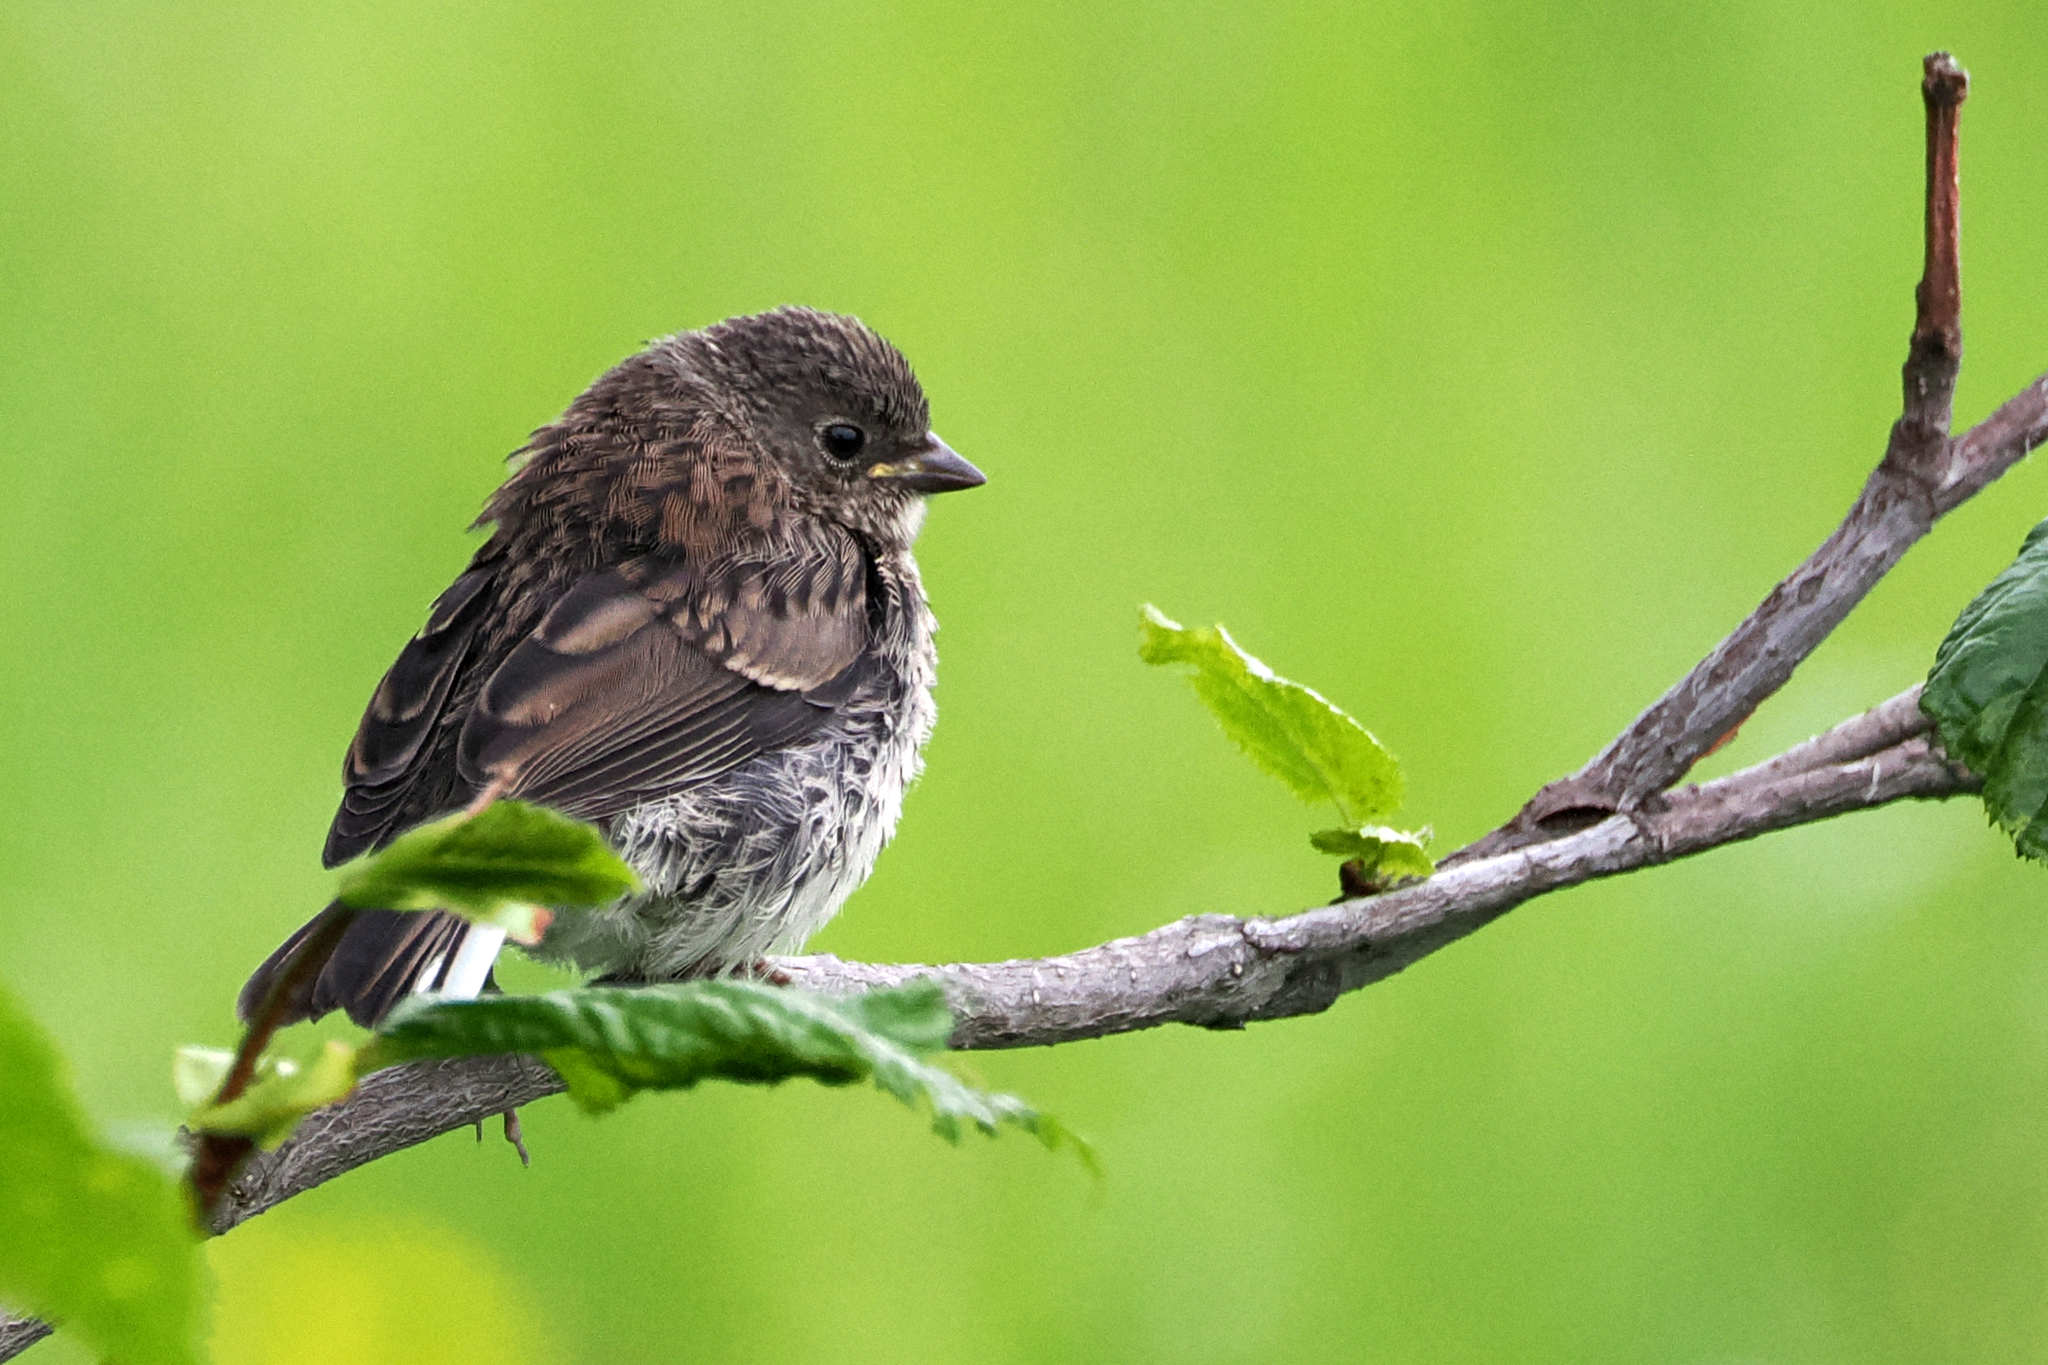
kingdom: Animalia
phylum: Chordata
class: Aves
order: Passeriformes
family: Passerellidae
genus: Junco
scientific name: Junco hyemalis
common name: Dark-eyed junco
